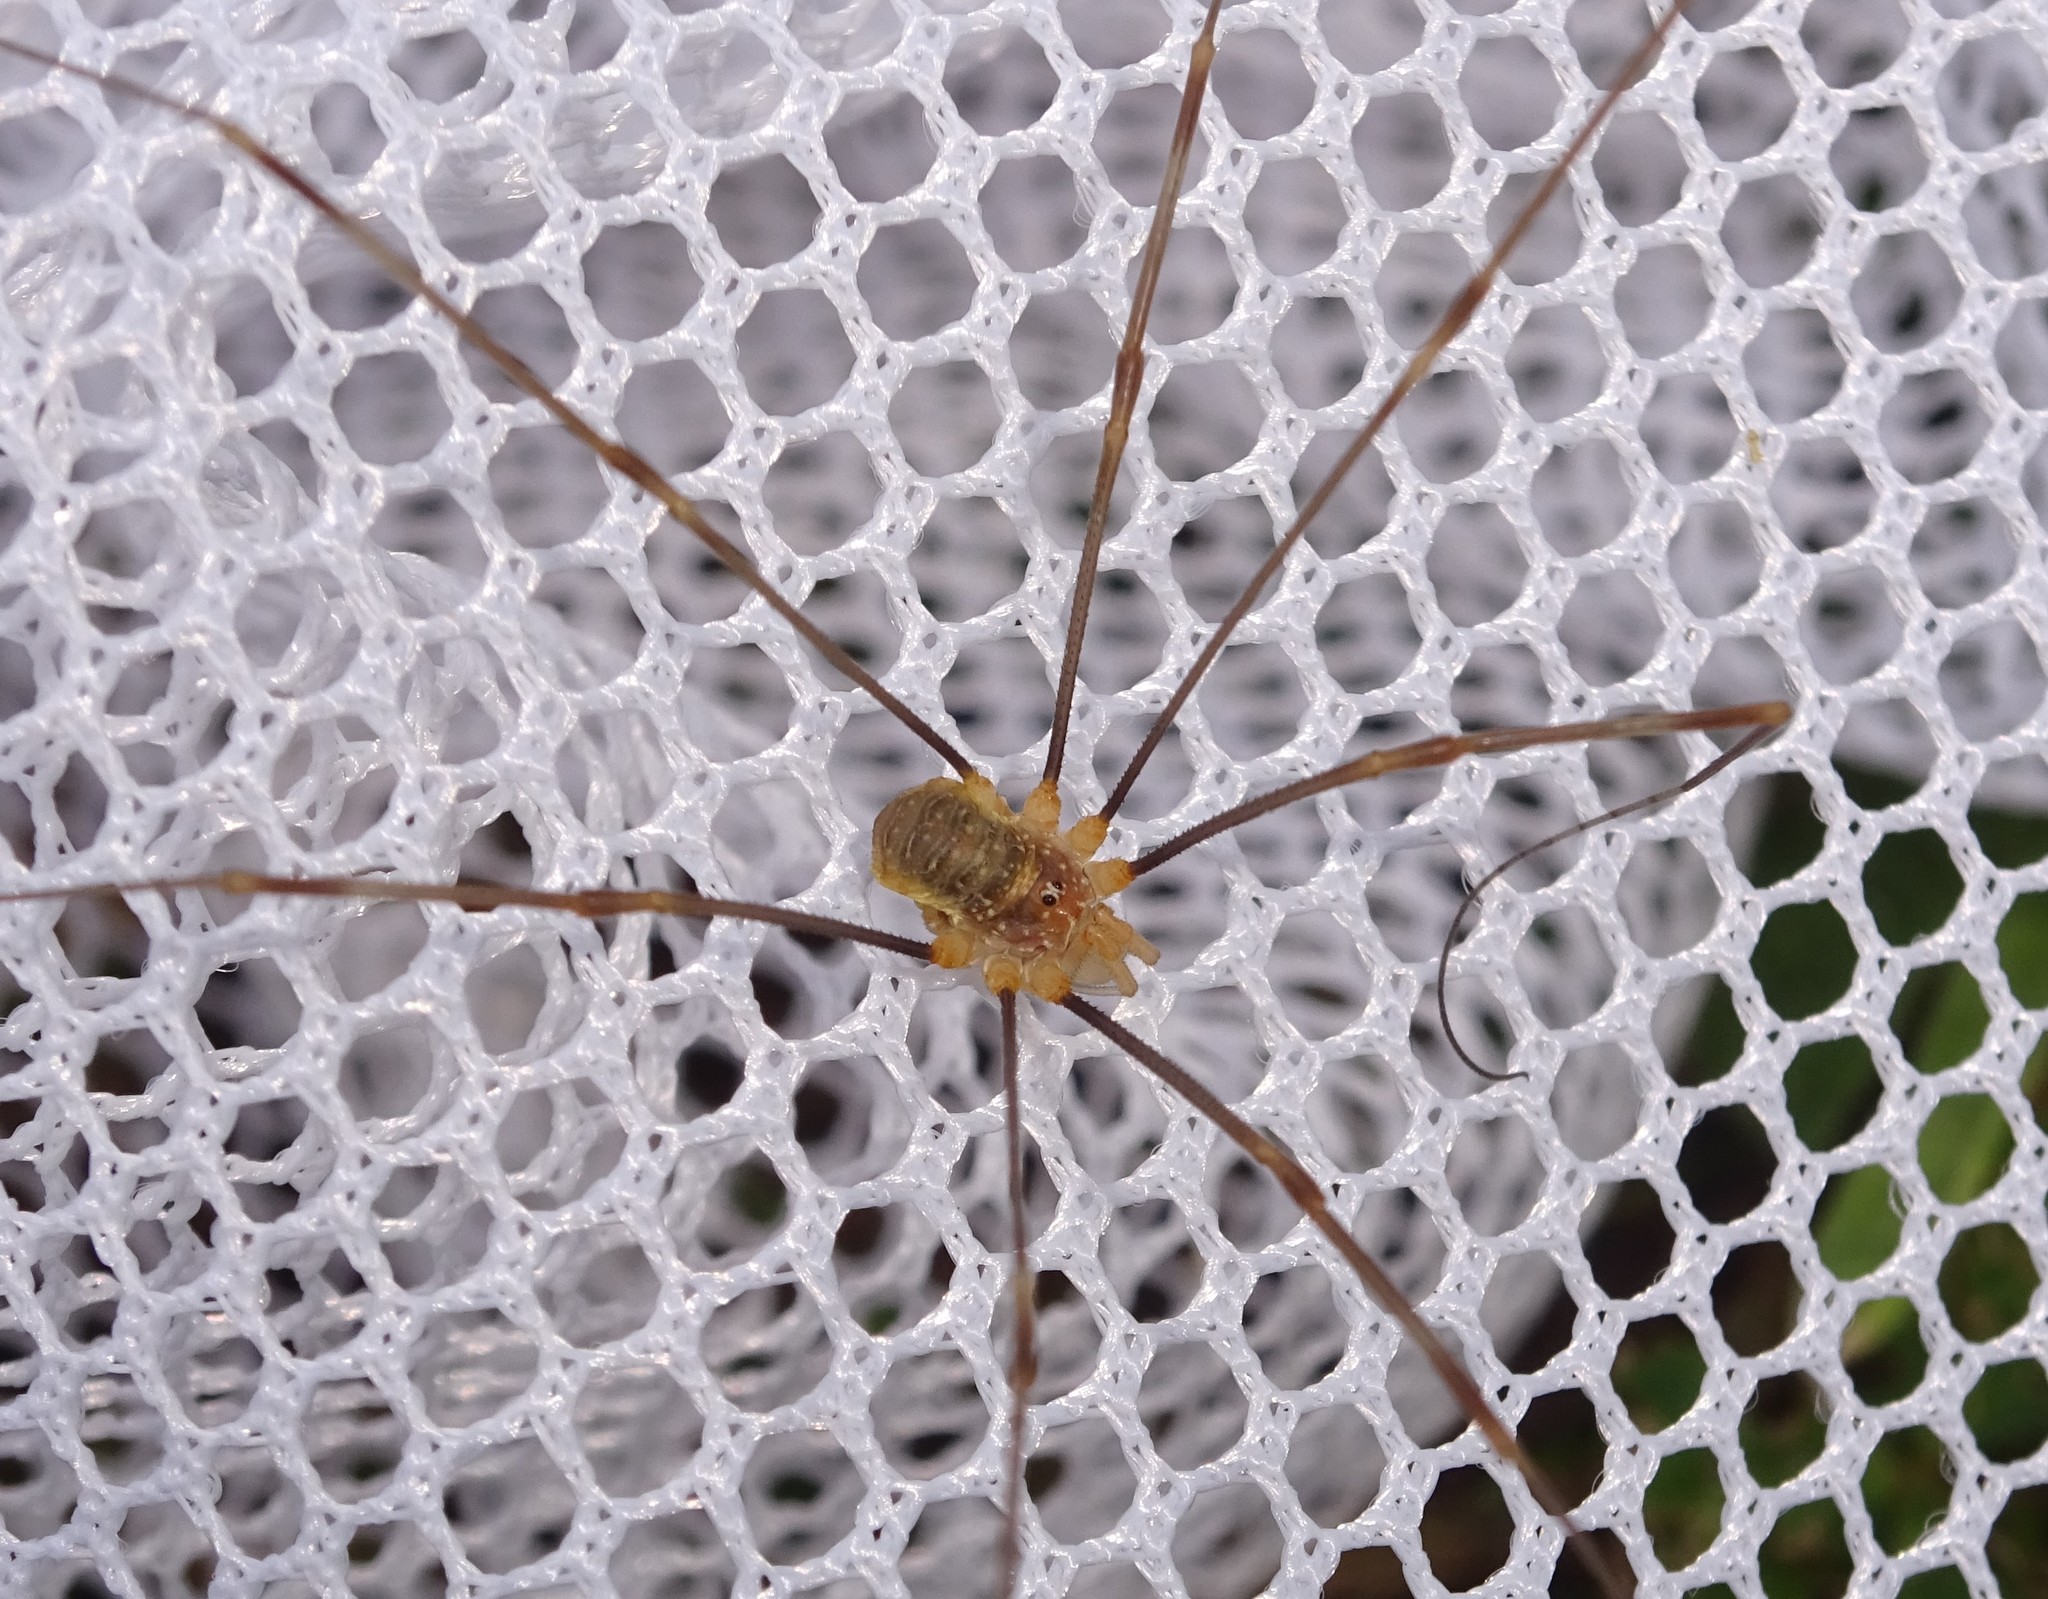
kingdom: Animalia
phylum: Arthropoda
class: Arachnida
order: Opiliones
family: Phalangiidae
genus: Opilio
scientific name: Opilio canestrinii
